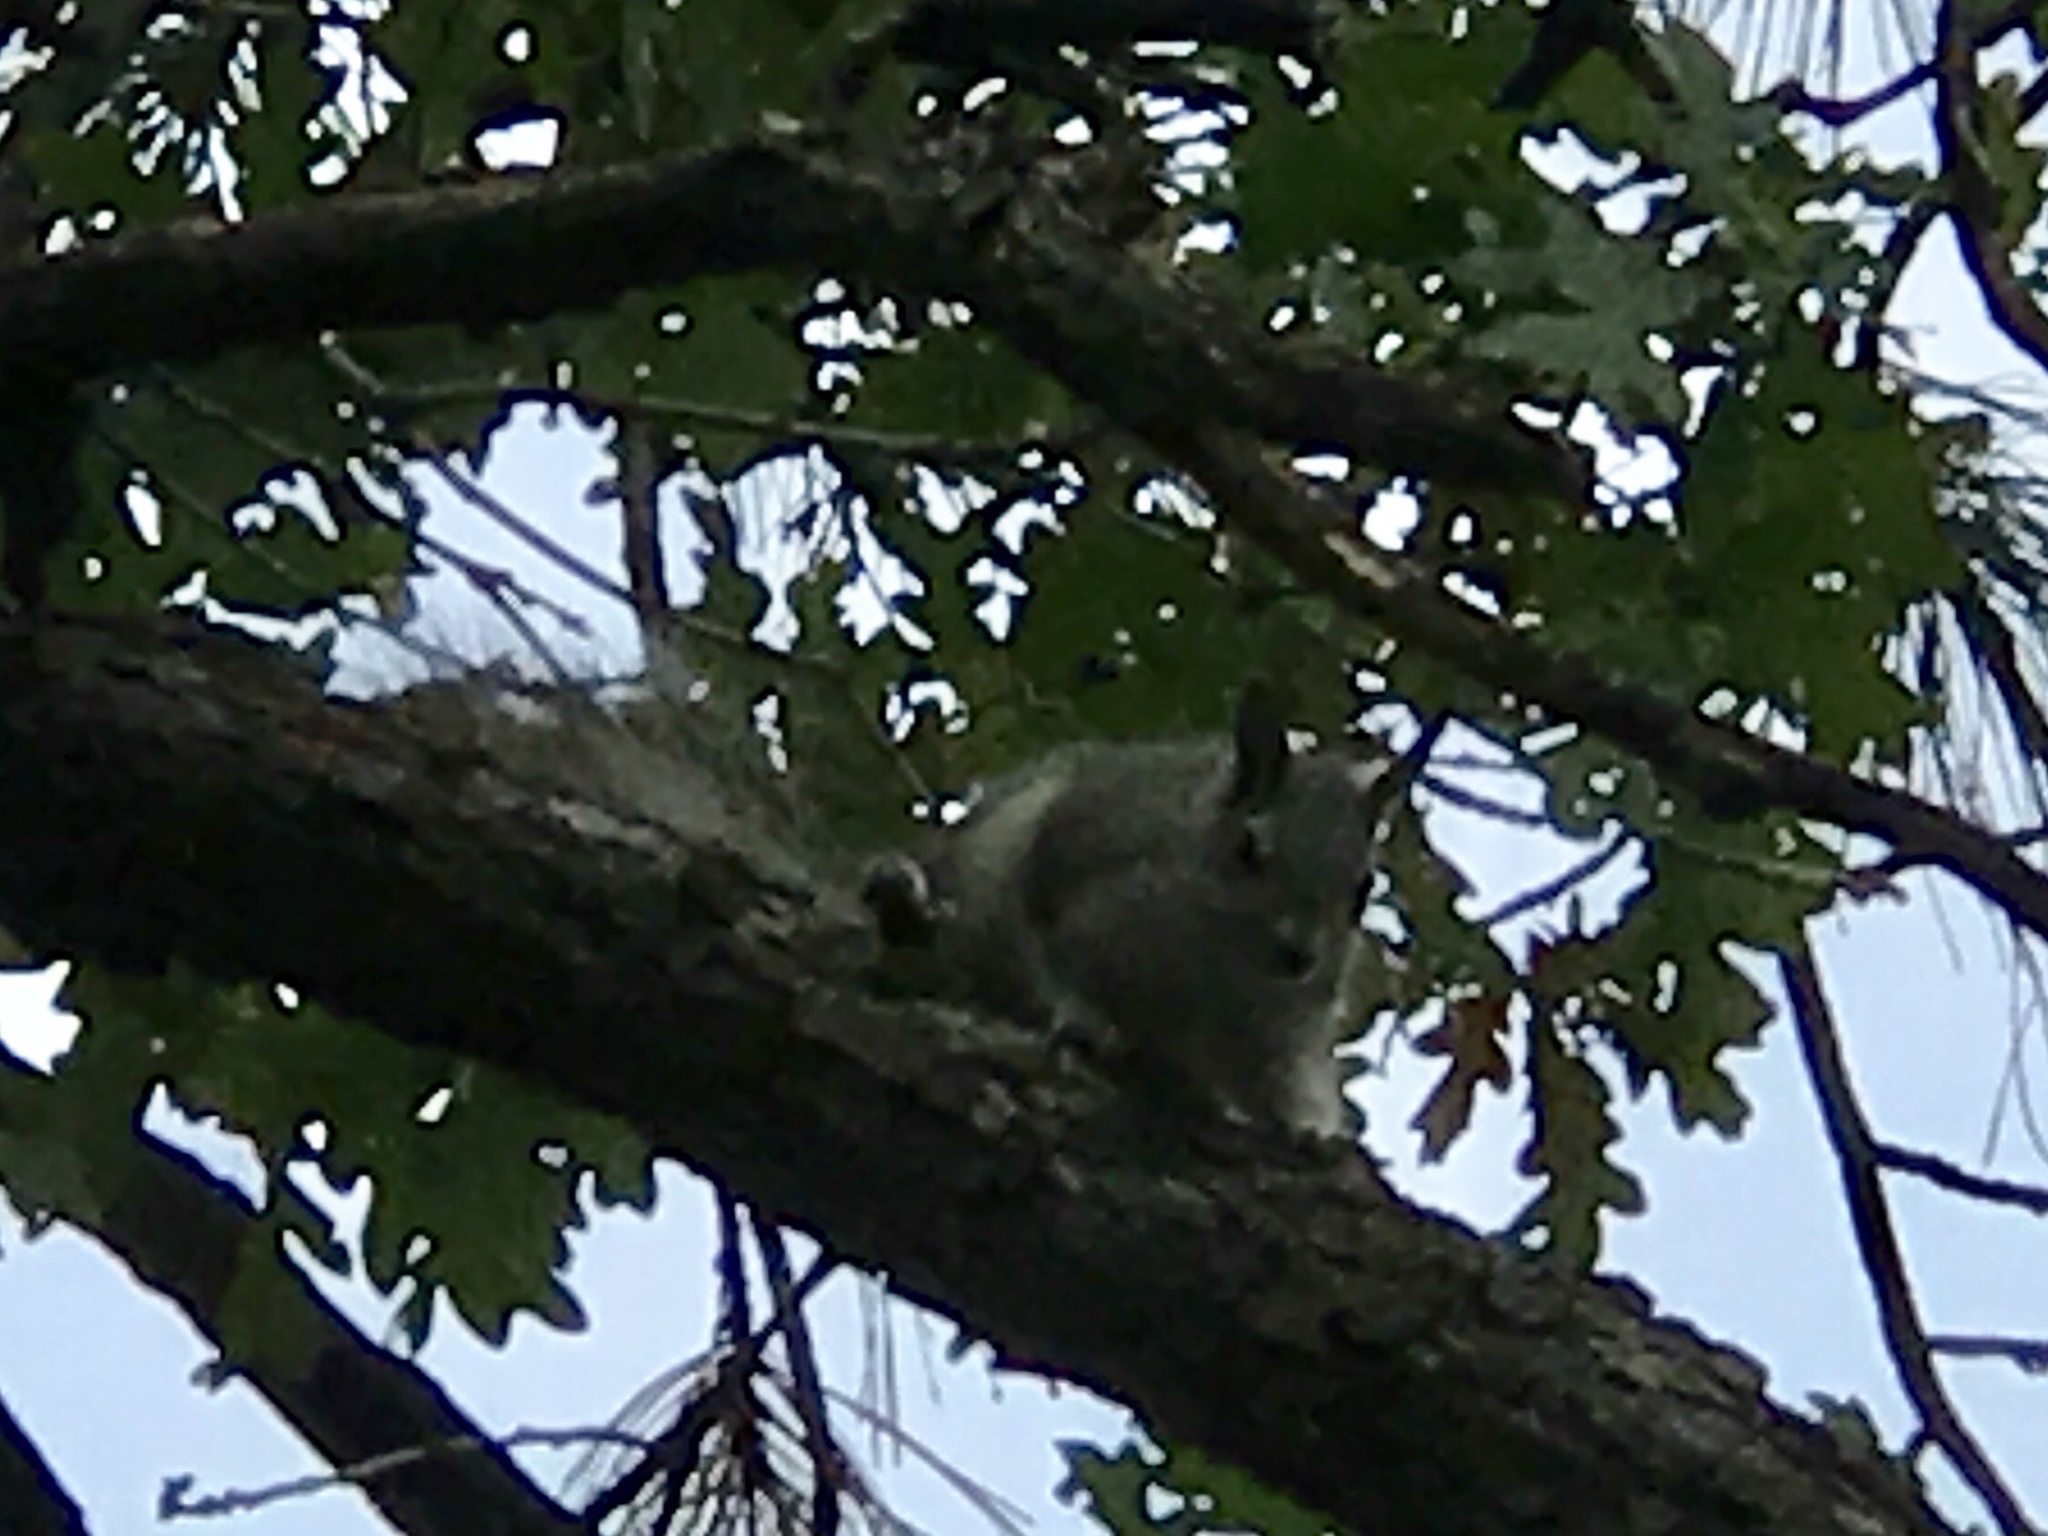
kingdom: Animalia
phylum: Chordata
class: Mammalia
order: Rodentia
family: Sciuridae
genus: Sciurus
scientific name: Sciurus aberti
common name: Abert's squirrel
